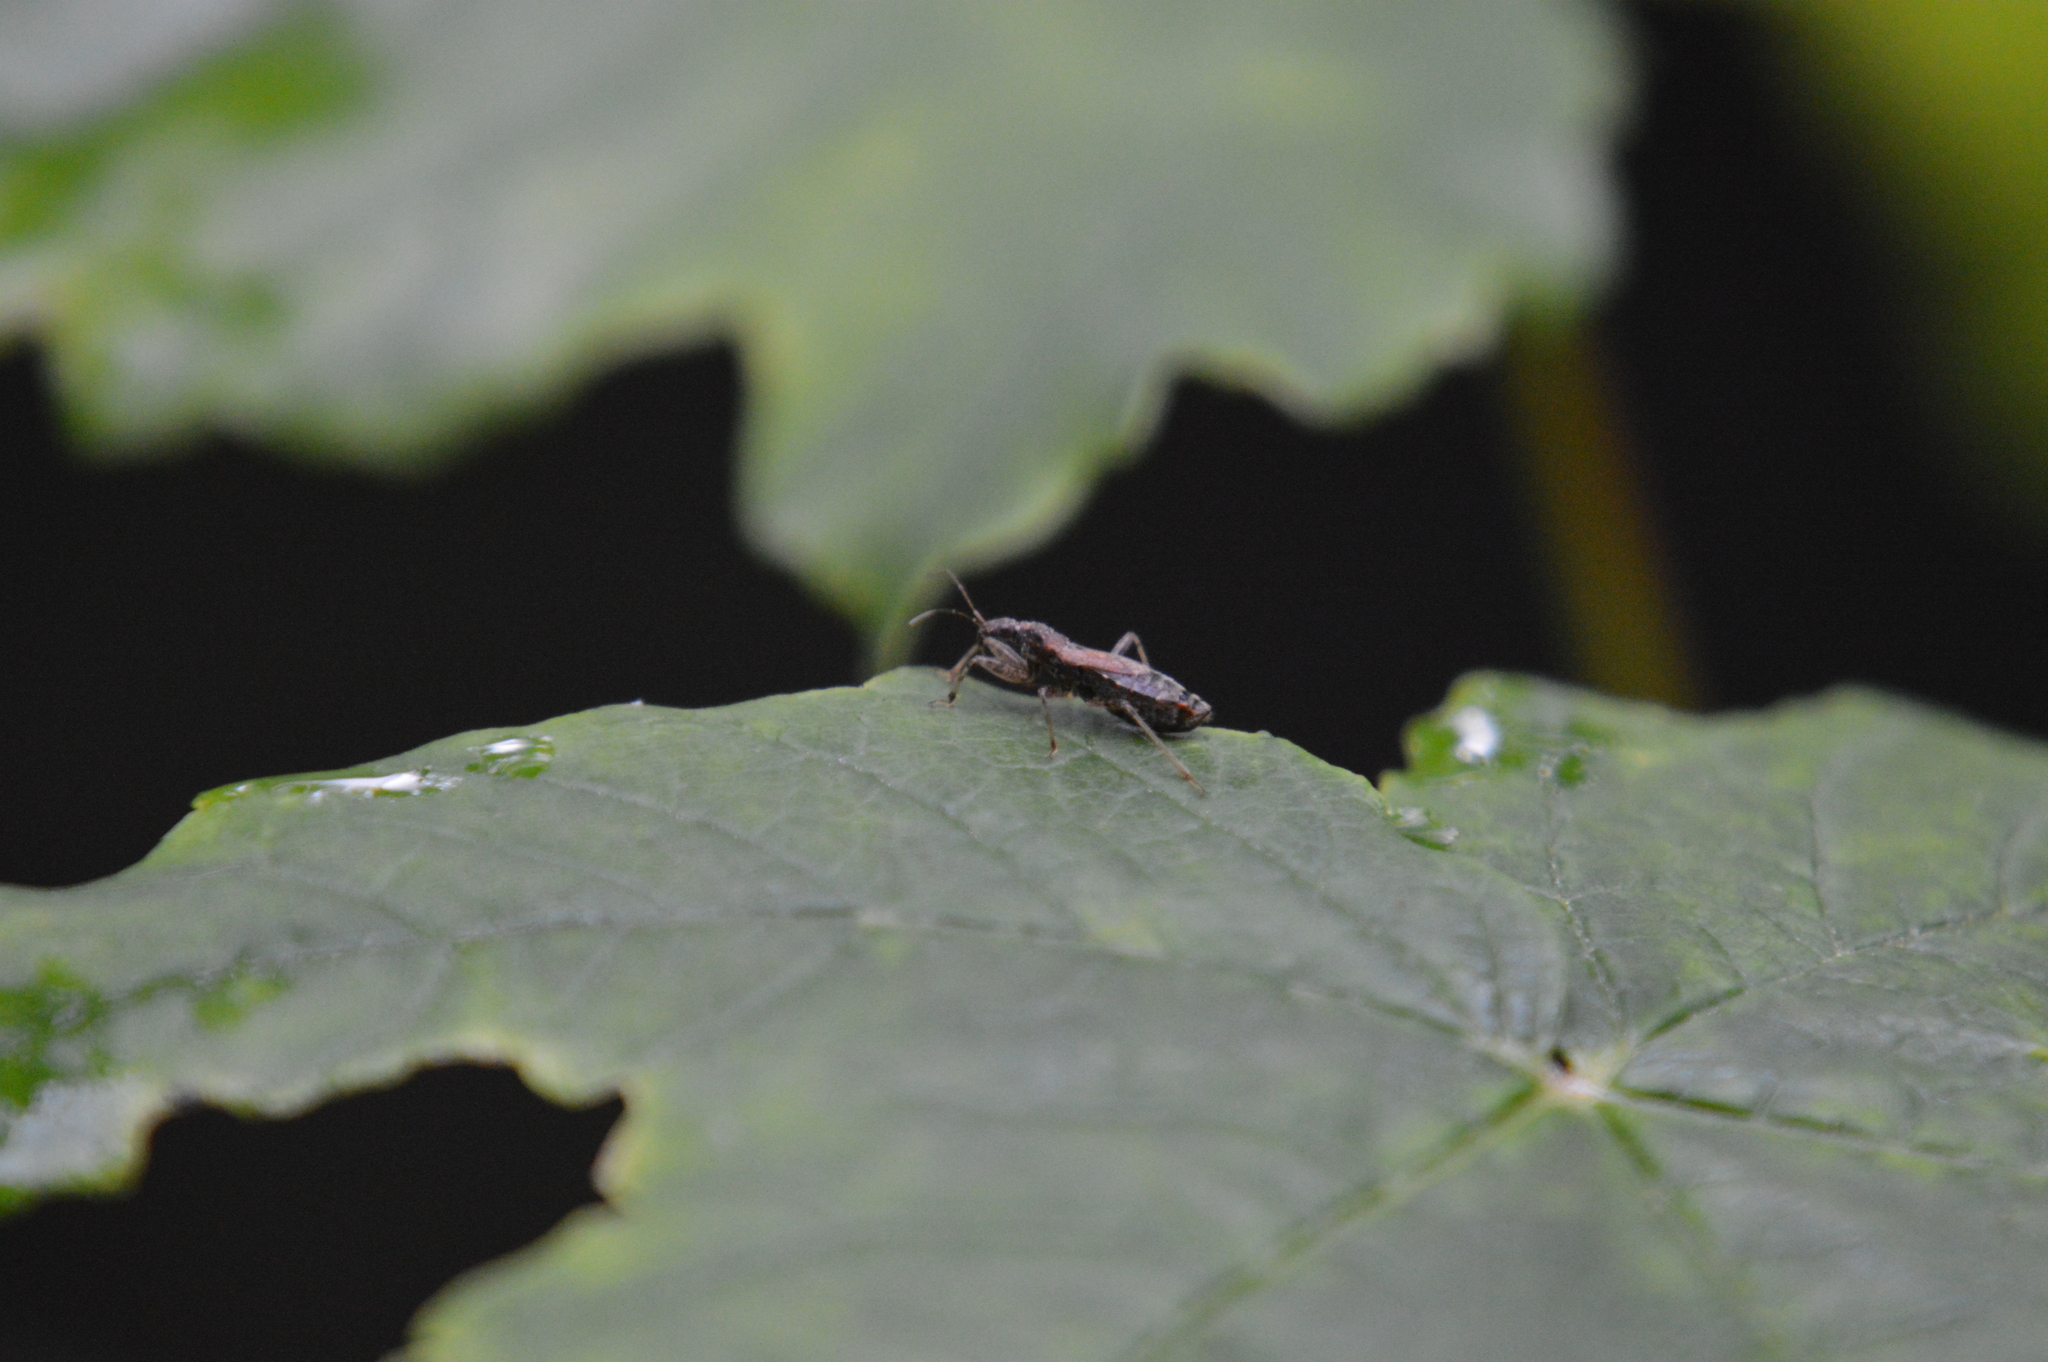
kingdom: Animalia
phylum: Arthropoda
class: Insecta
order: Hemiptera
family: Nabidae
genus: Himacerus
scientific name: Himacerus mirmicoides
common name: Ant damsel bug
